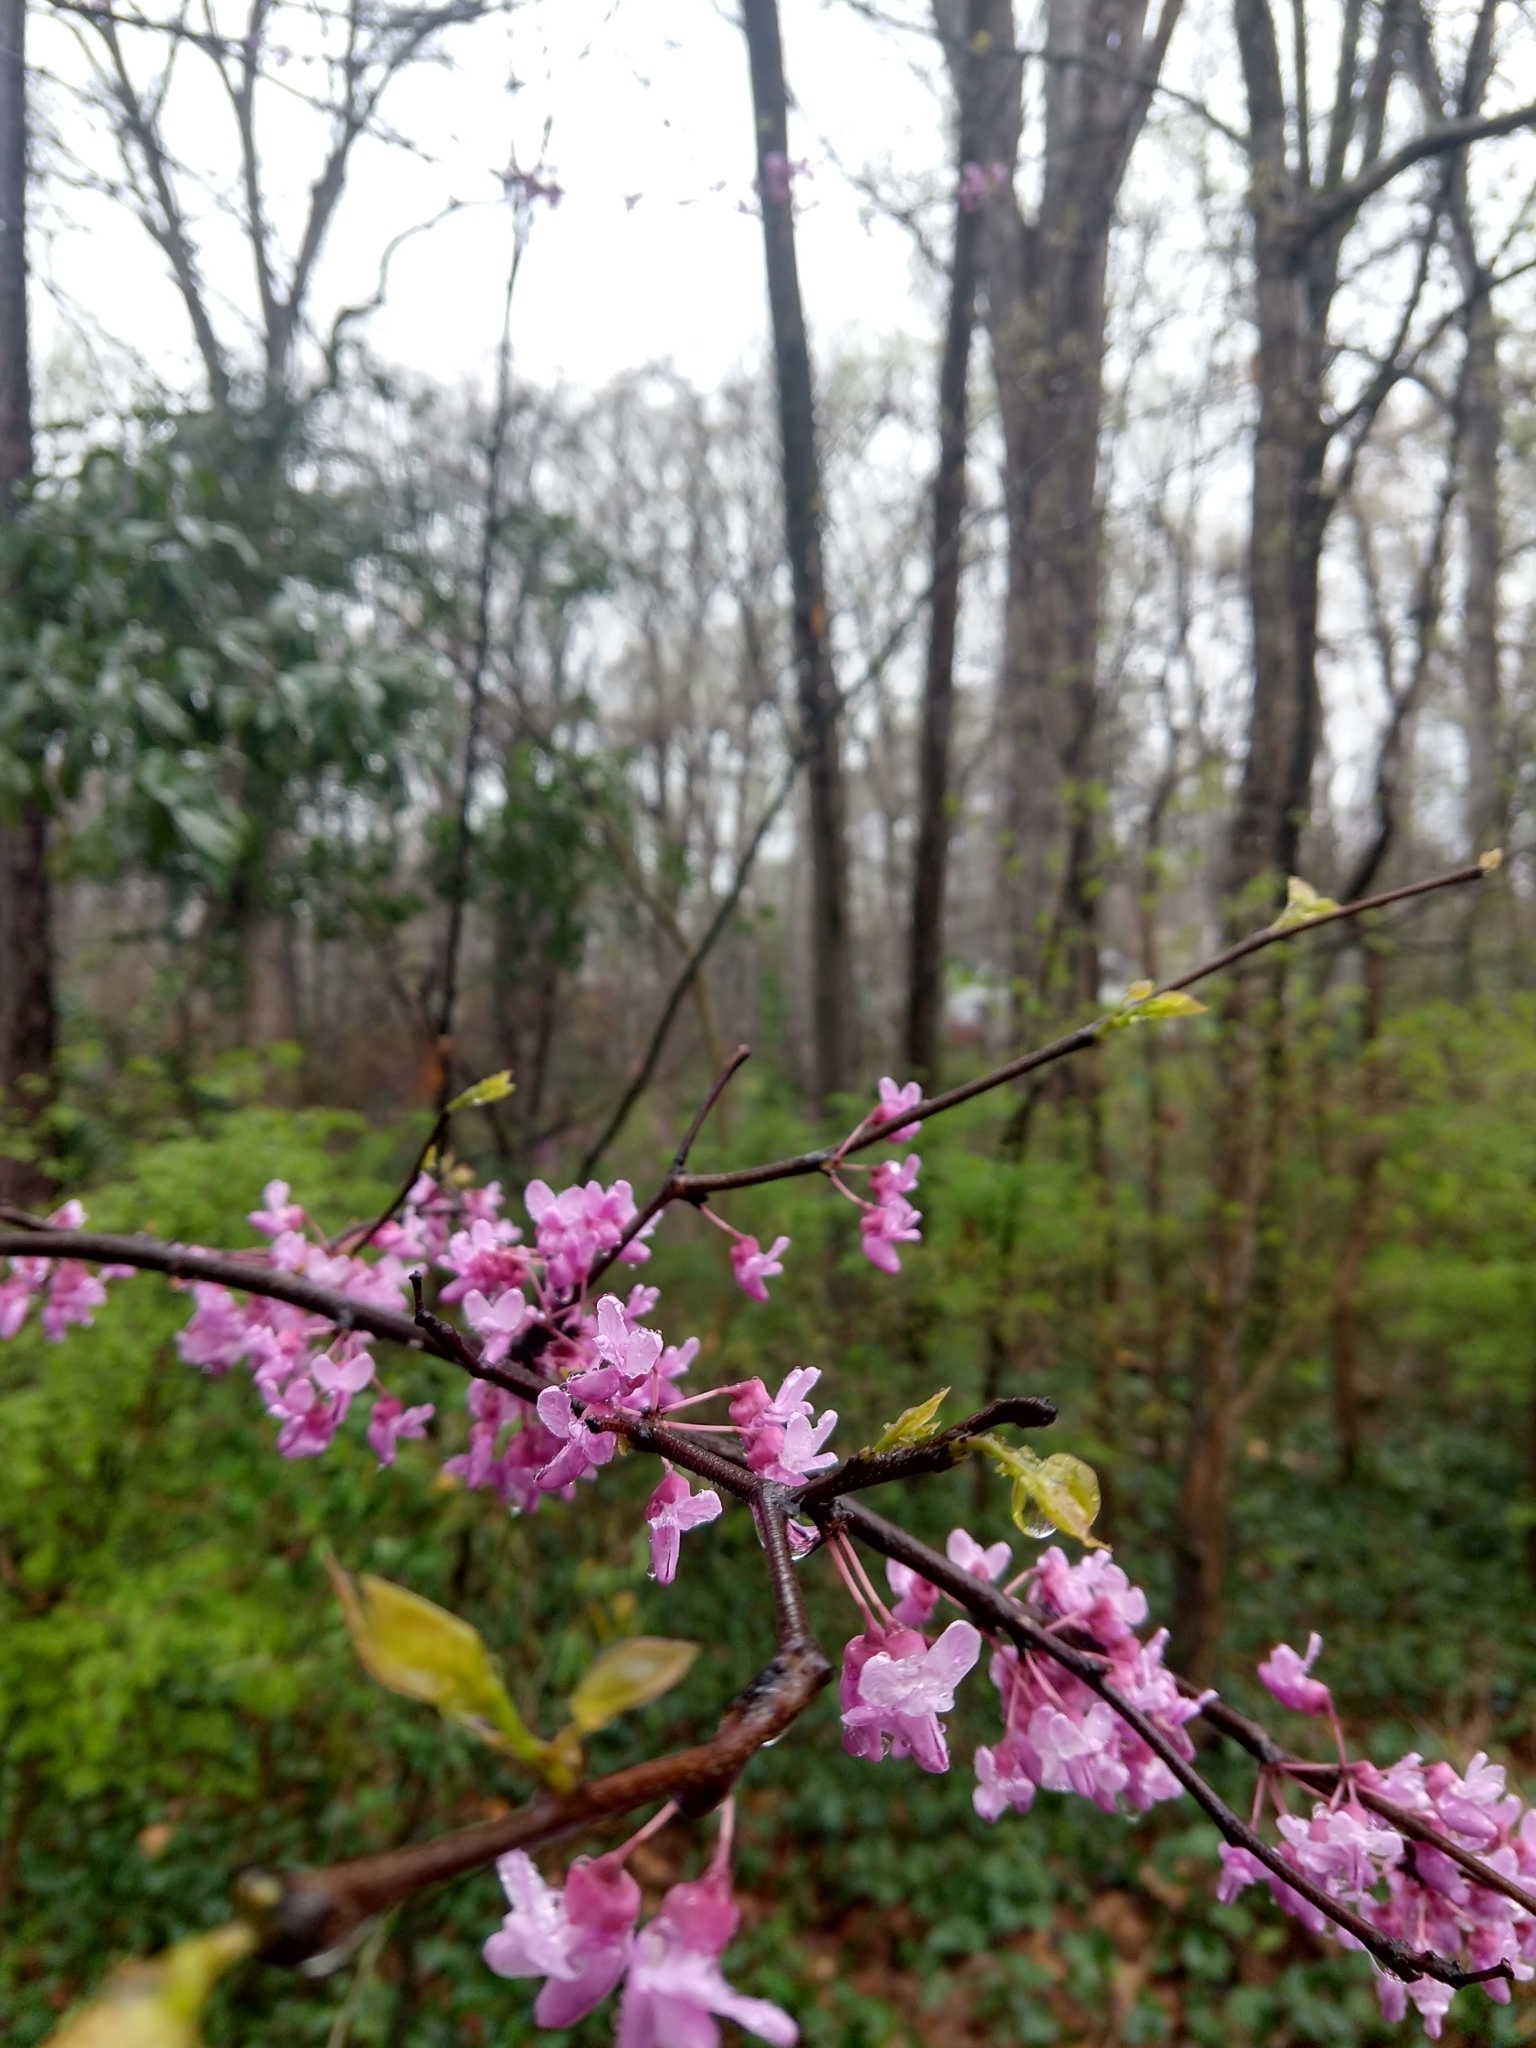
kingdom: Plantae
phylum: Tracheophyta
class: Magnoliopsida
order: Fabales
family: Fabaceae
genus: Cercis
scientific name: Cercis canadensis
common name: Eastern redbud
